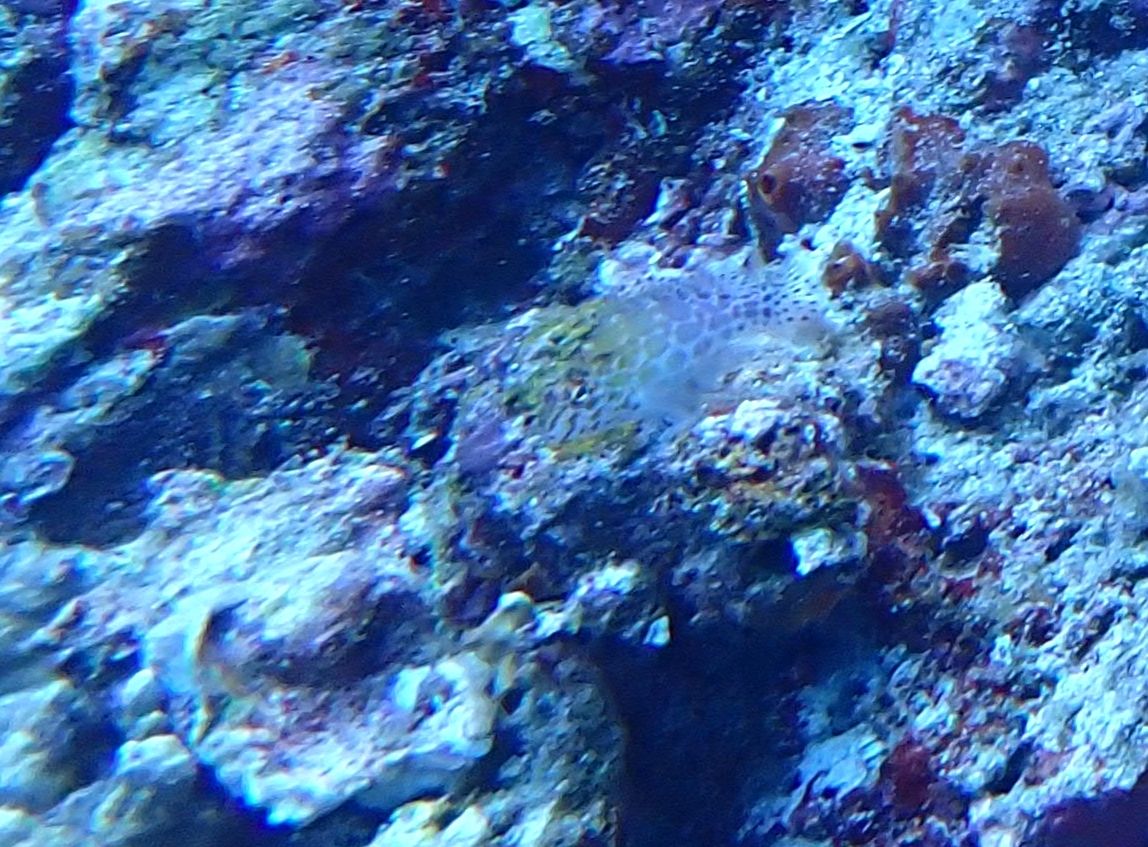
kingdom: Animalia
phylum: Chordata
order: Perciformes
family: Cirrhitidae
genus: Cirrhitichthys
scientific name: Cirrhitichthys oxycephalus
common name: Spotted hawkfish
